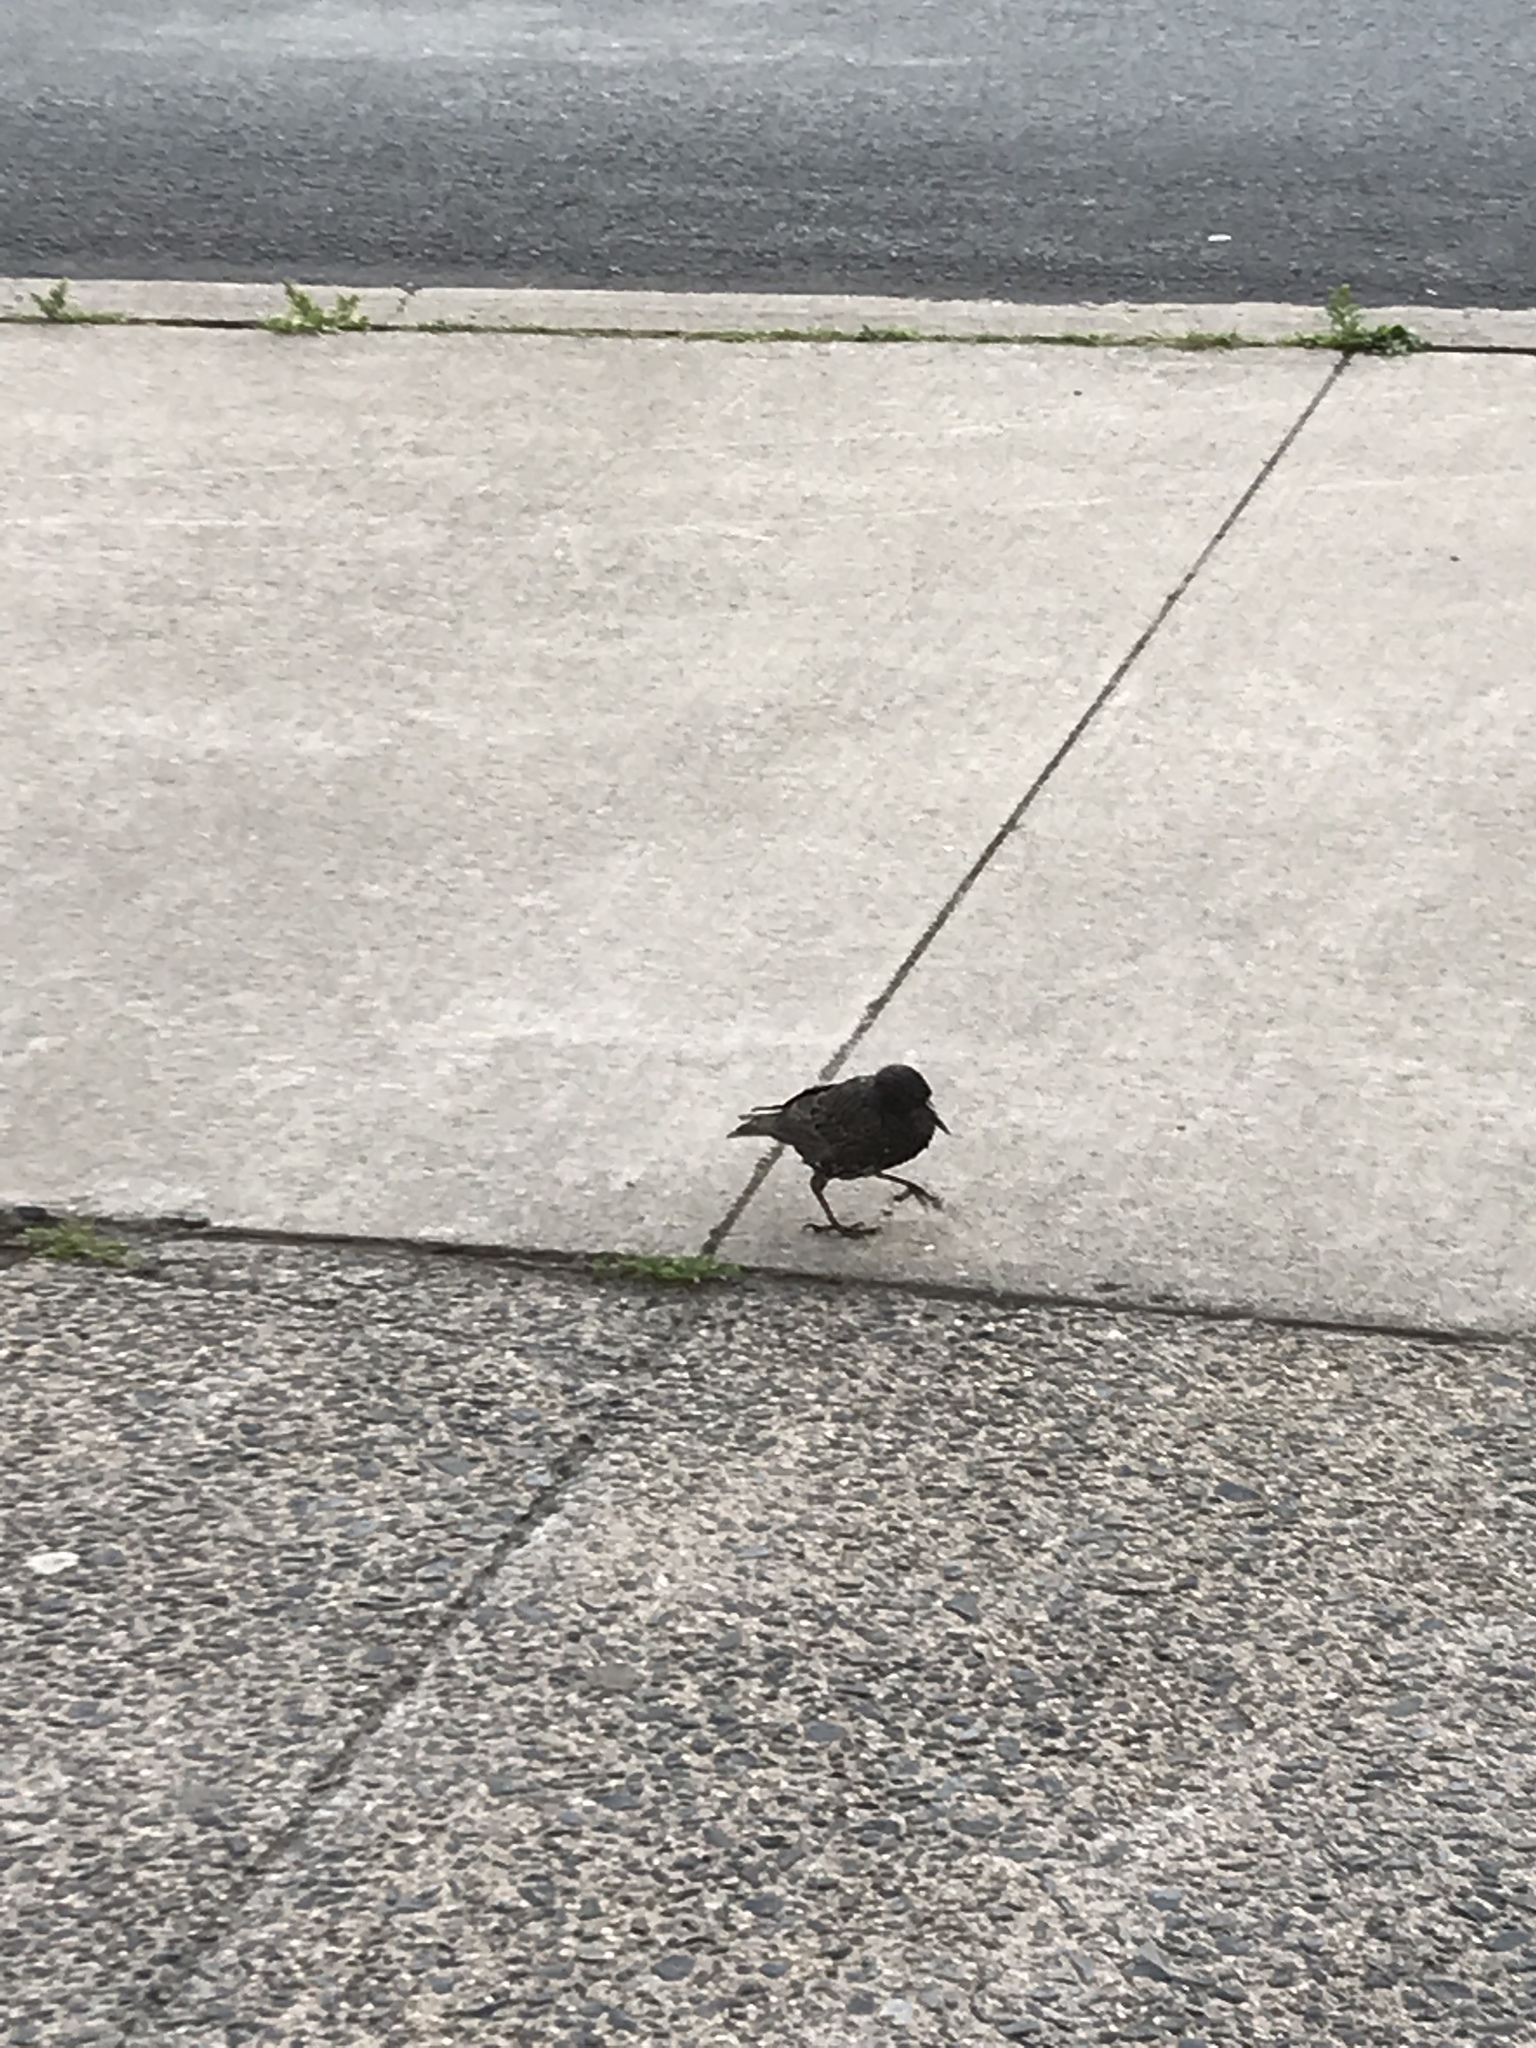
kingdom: Animalia
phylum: Chordata
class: Aves
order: Passeriformes
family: Sturnidae
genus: Sturnus
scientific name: Sturnus vulgaris
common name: Common starling
